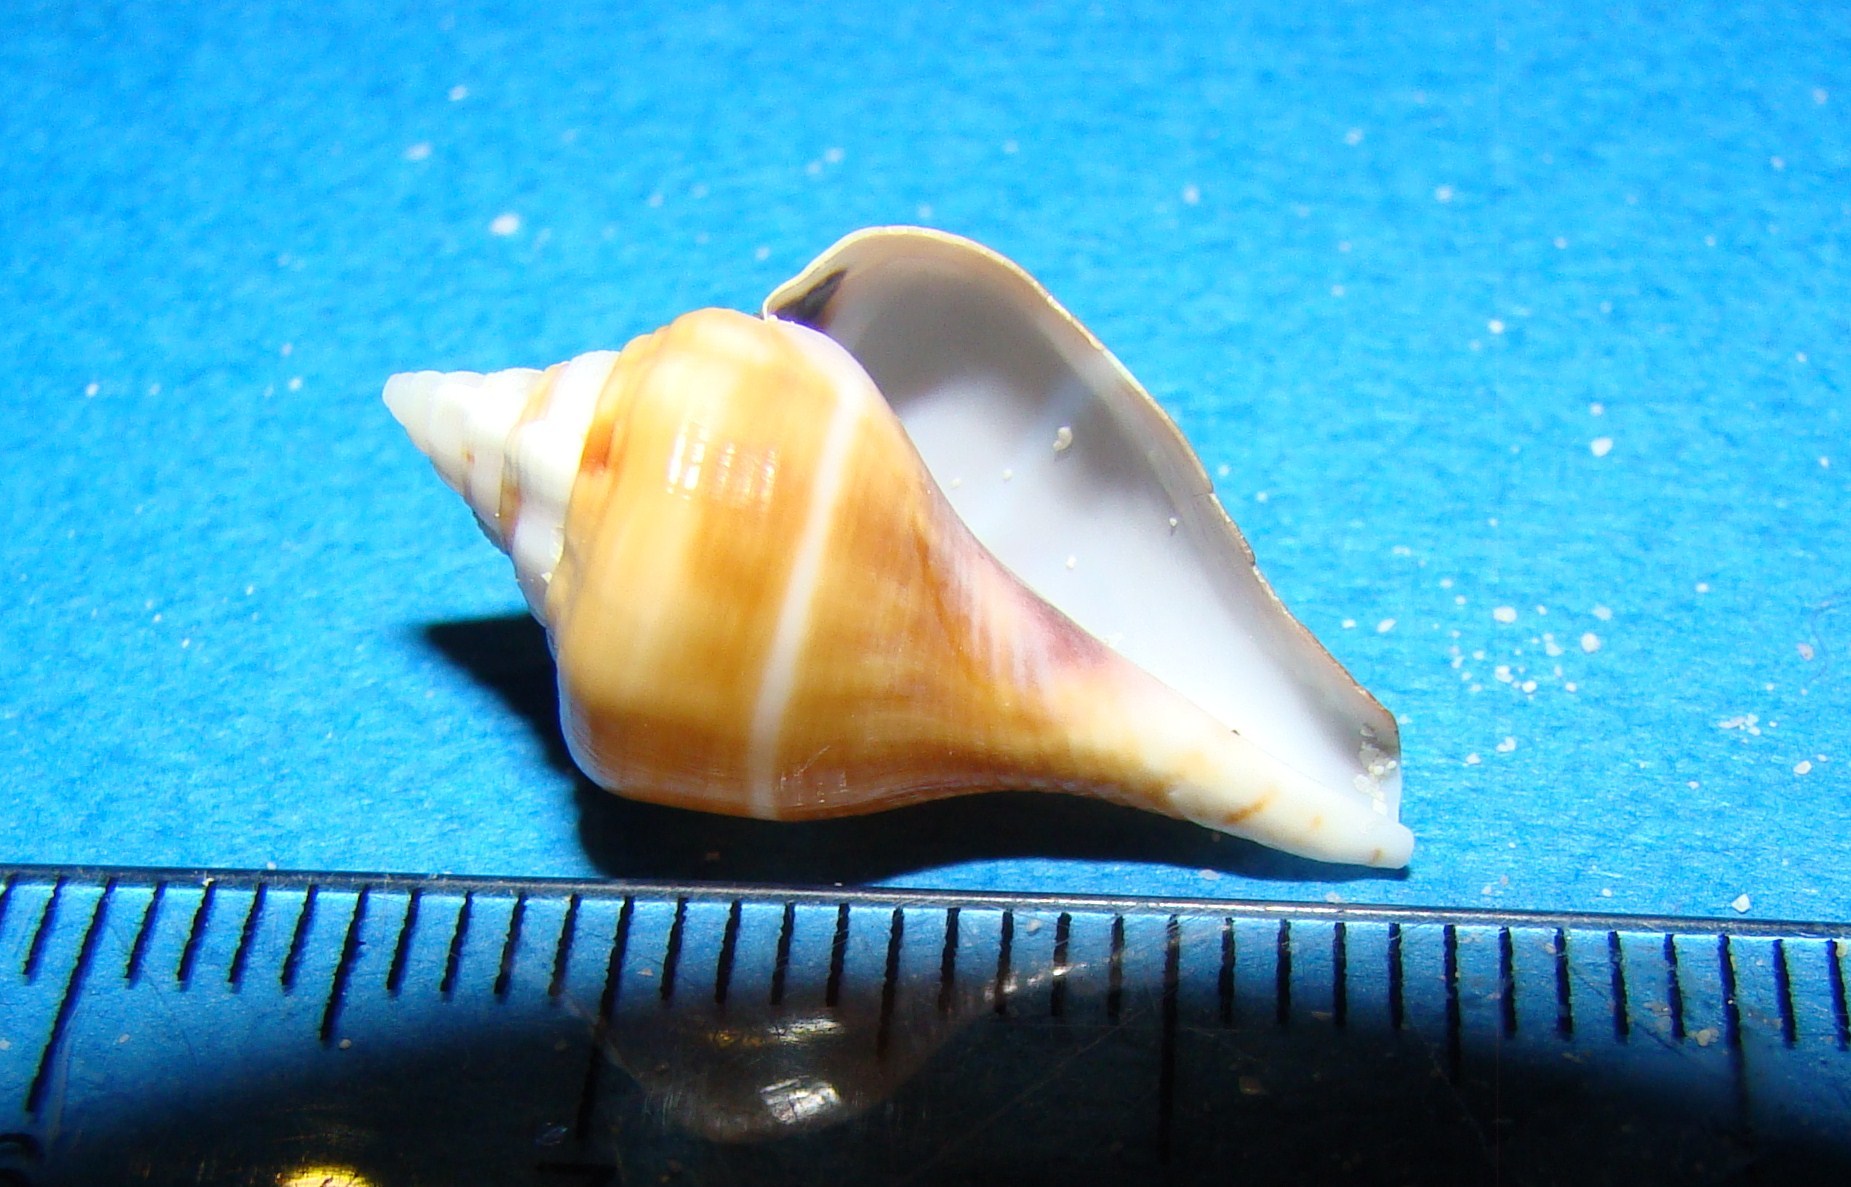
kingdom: Animalia
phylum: Mollusca
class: Gastropoda
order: Littorinimorpha
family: Strombidae
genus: Gibberulus
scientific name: Gibberulus gibberulus
